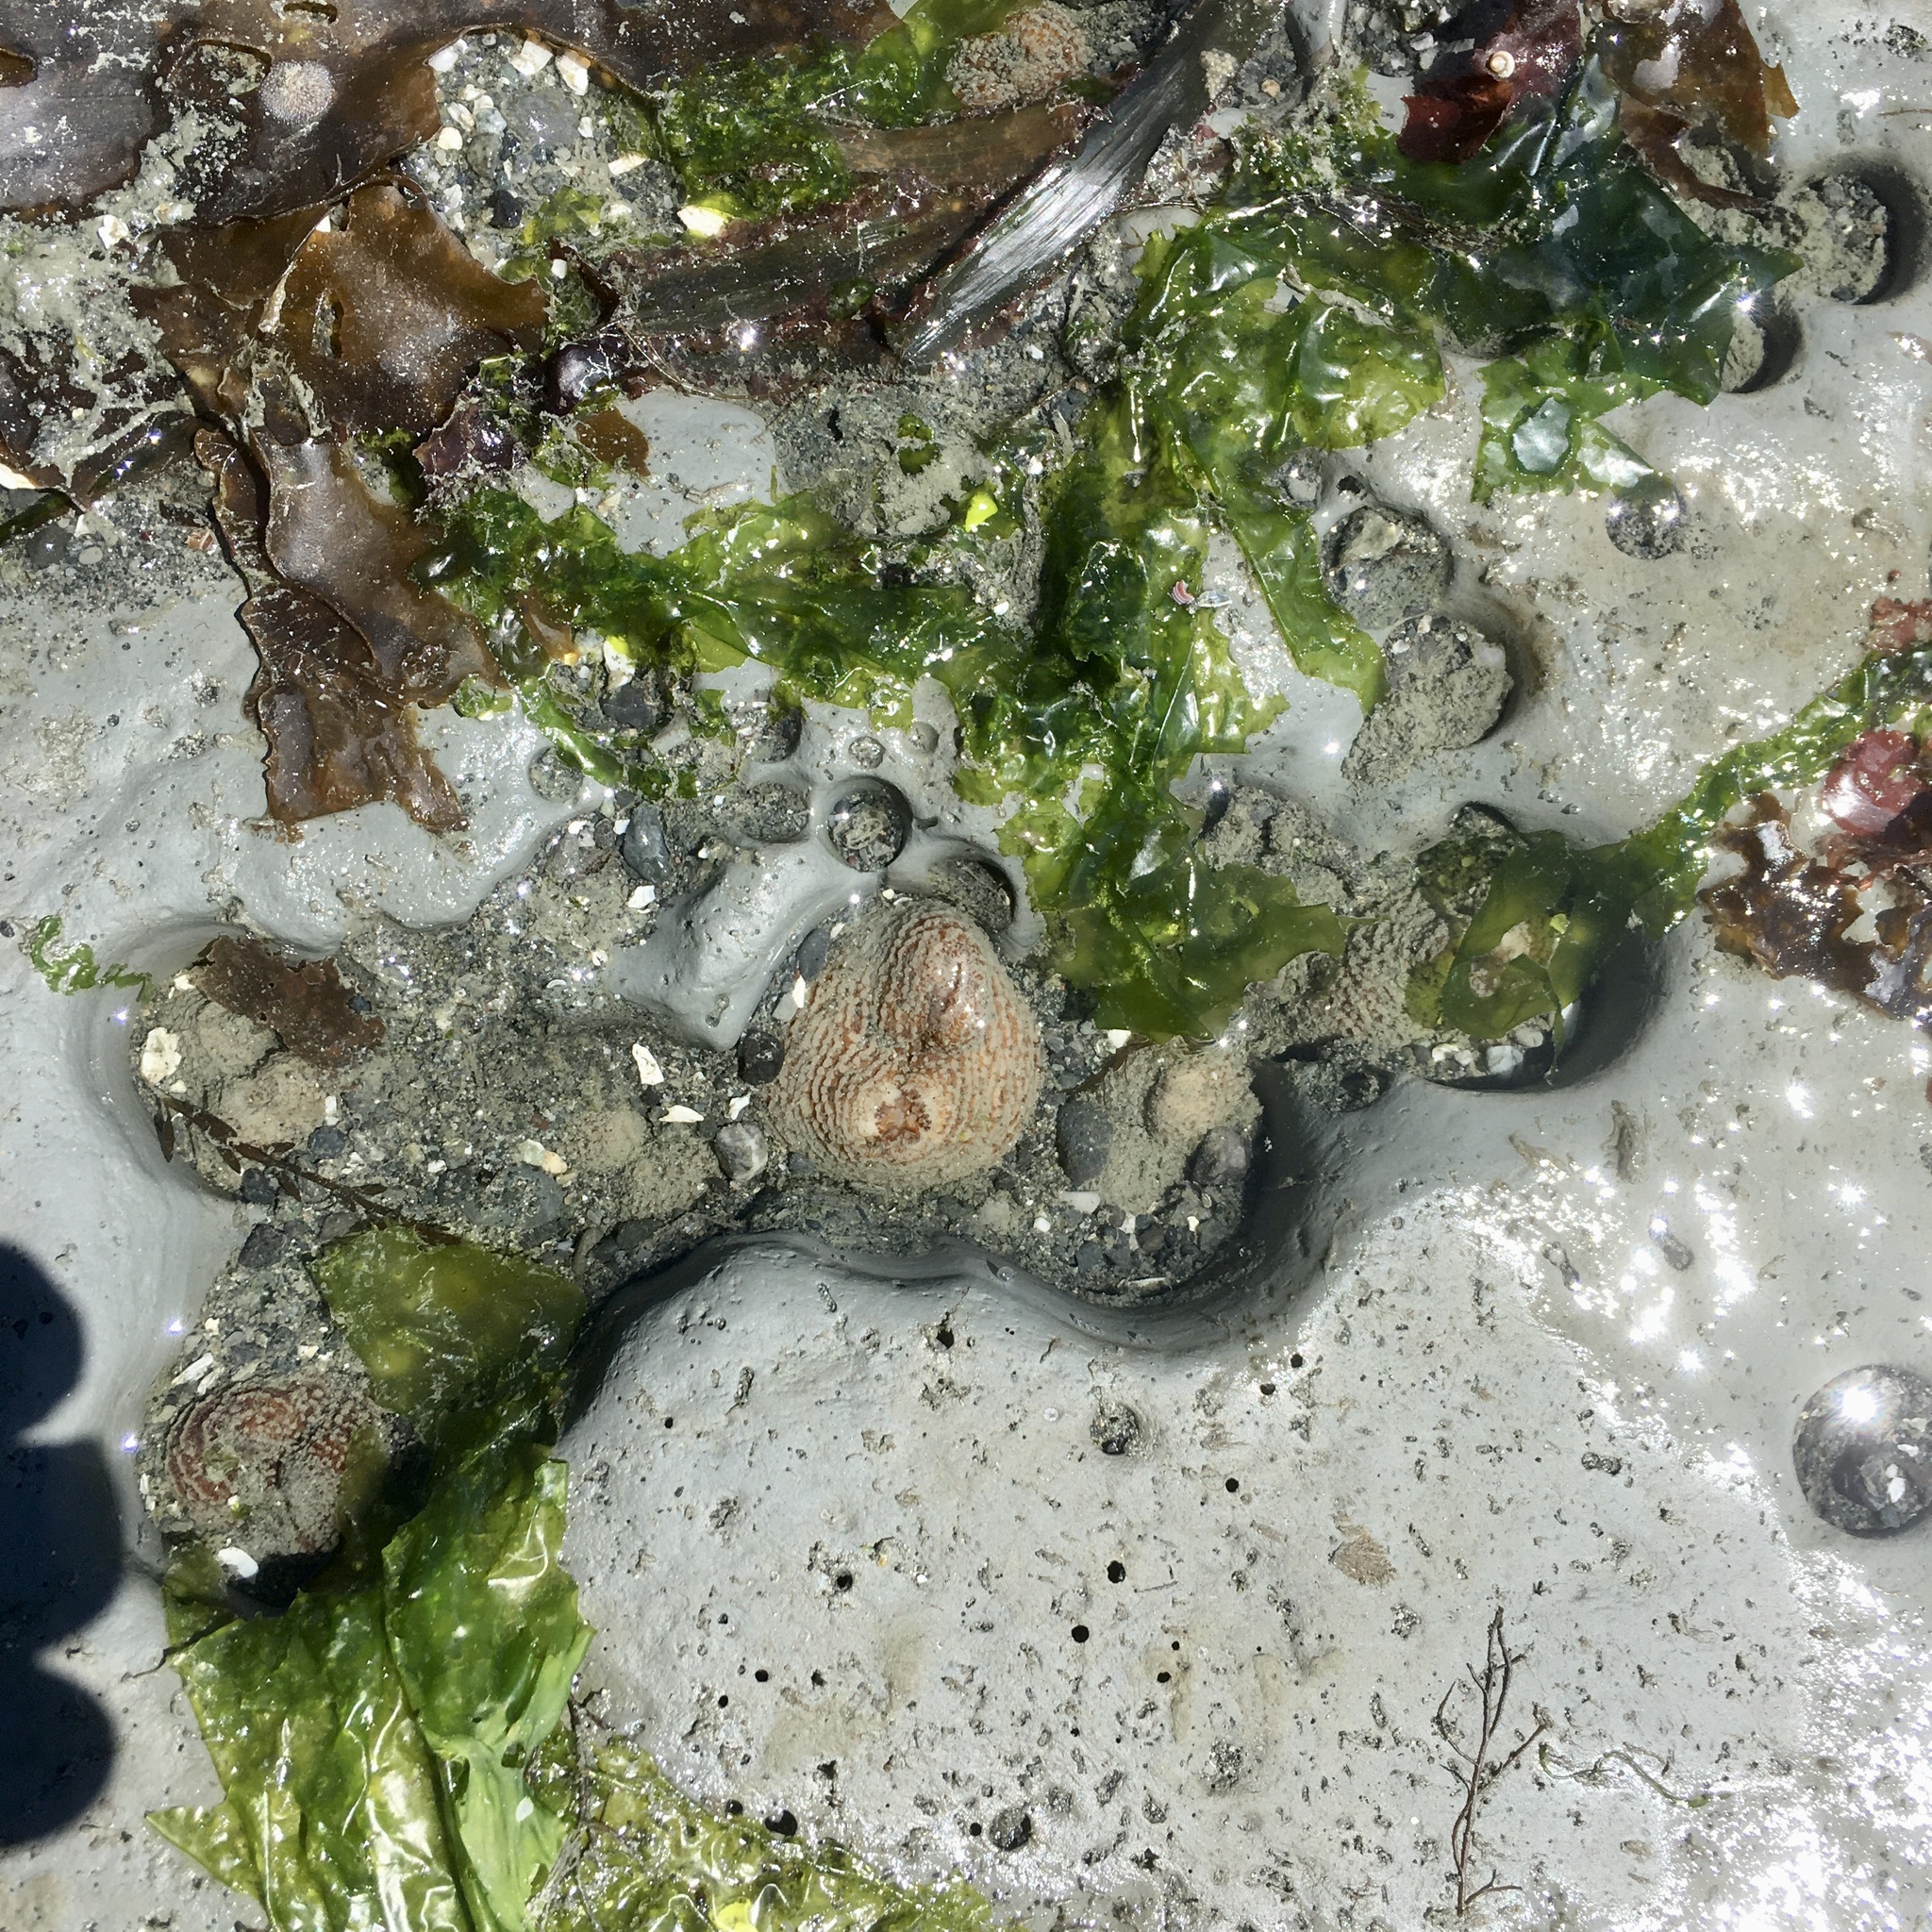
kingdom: Animalia
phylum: Mollusca
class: Bivalvia
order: Myida
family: Pholadidae
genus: Zirfaea
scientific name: Zirfaea pilsbryi
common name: Rough piddock
